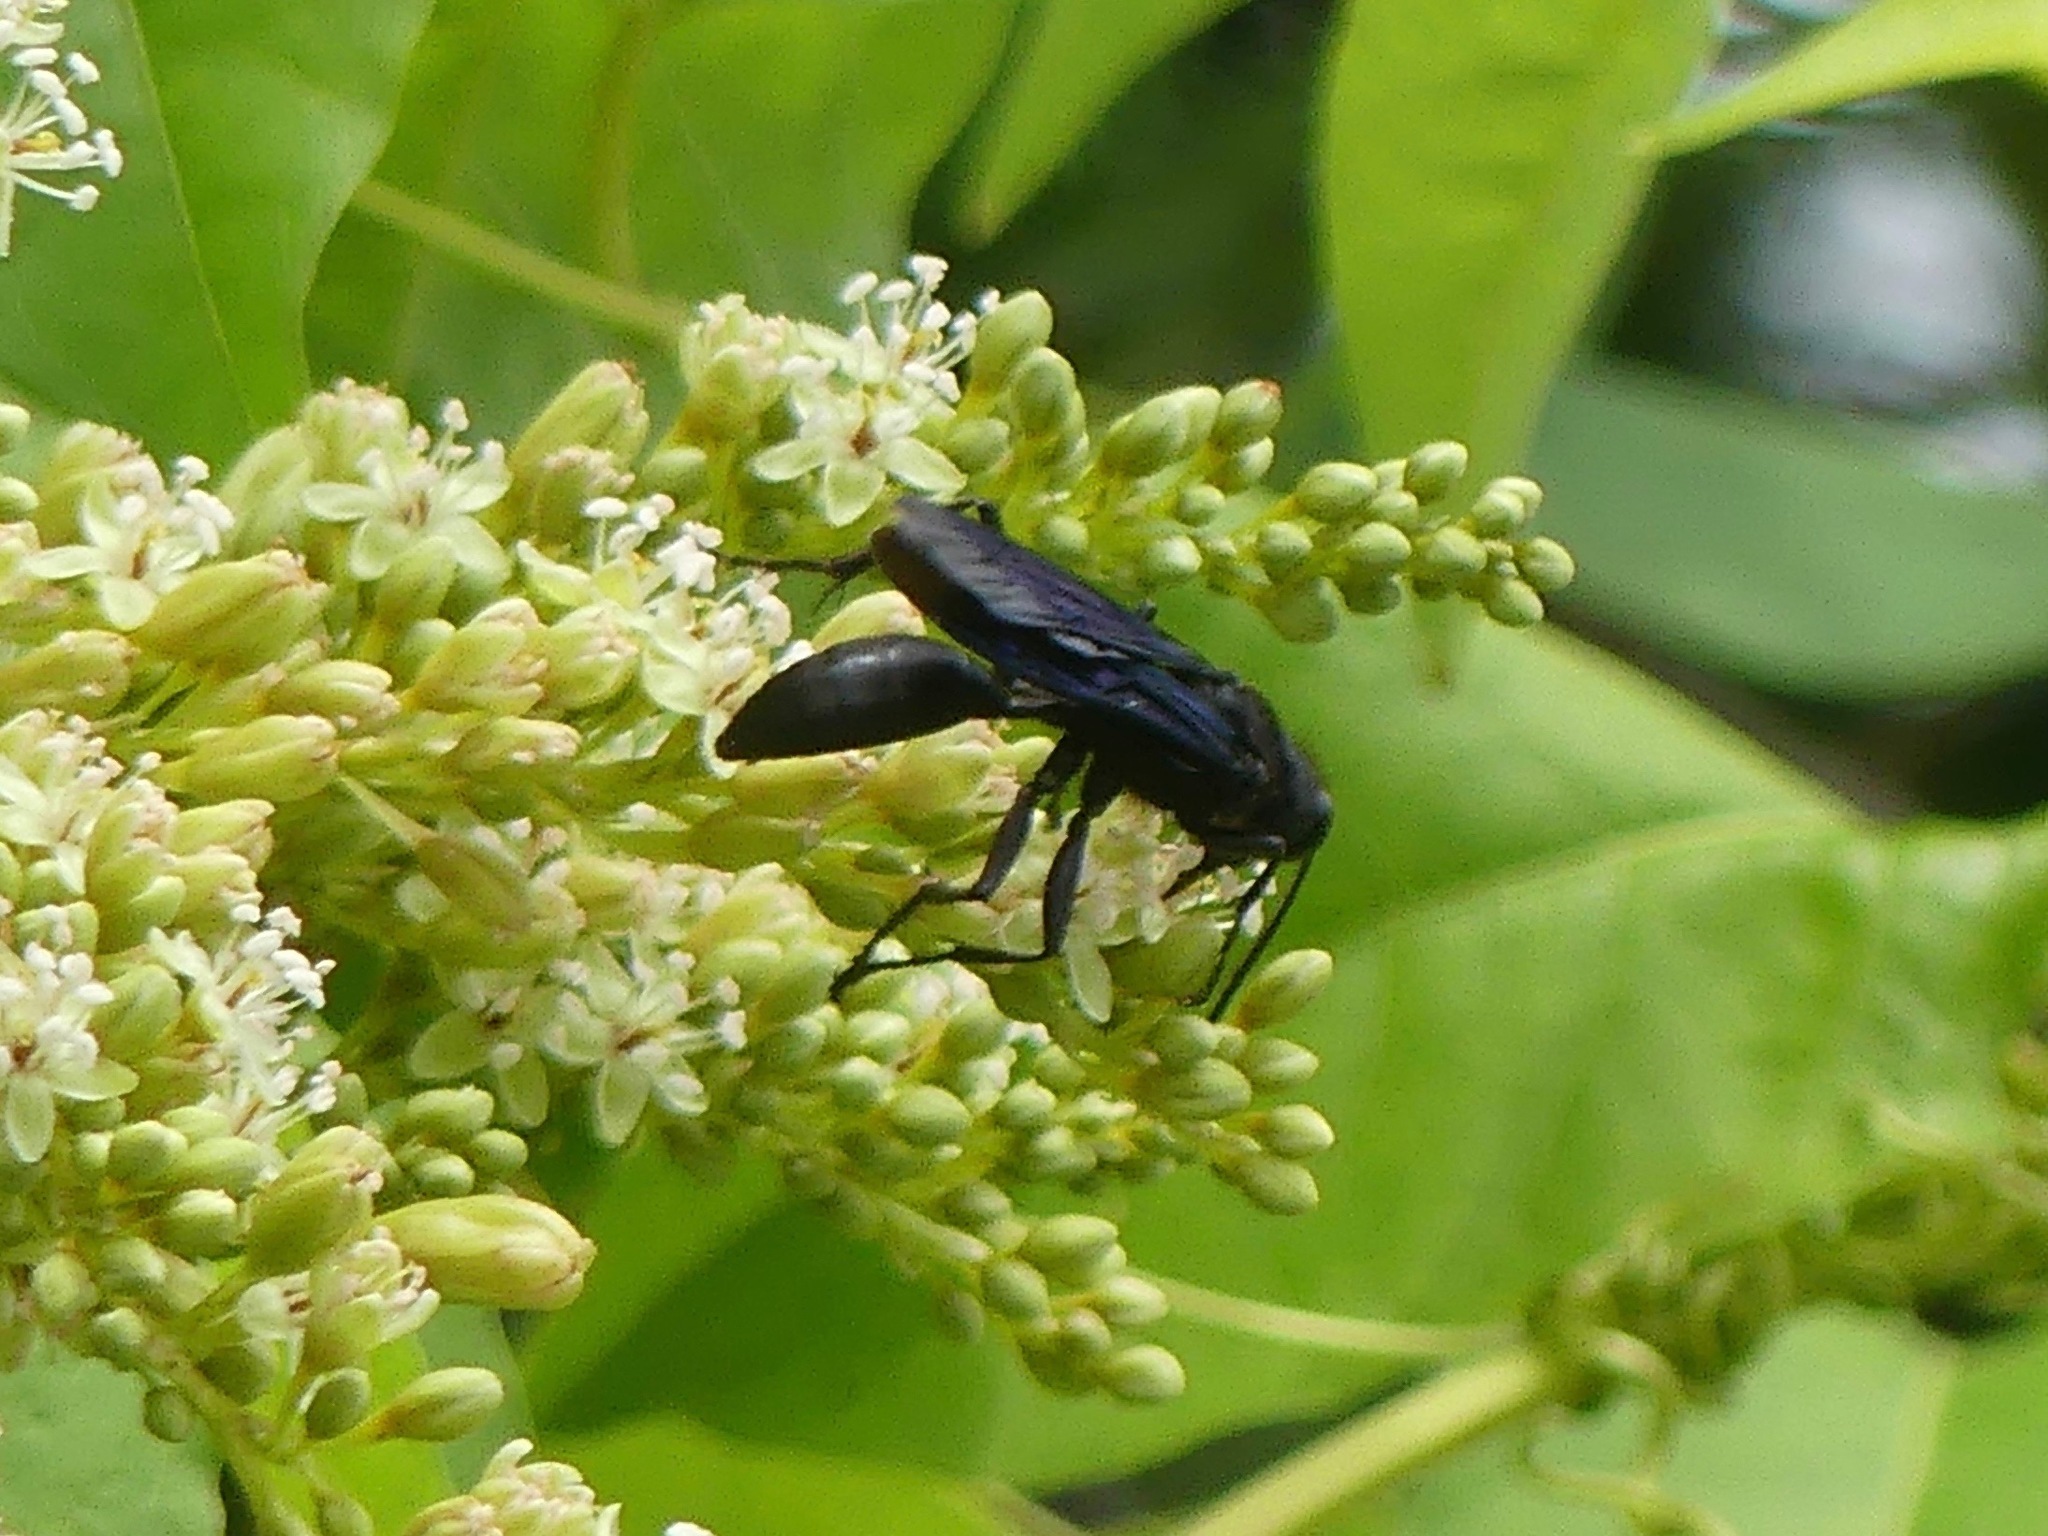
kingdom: Animalia
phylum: Arthropoda
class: Insecta
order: Hymenoptera
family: Sphecidae
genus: Sphex
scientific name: Sphex pensylvanicus
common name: Great black digger wasp
